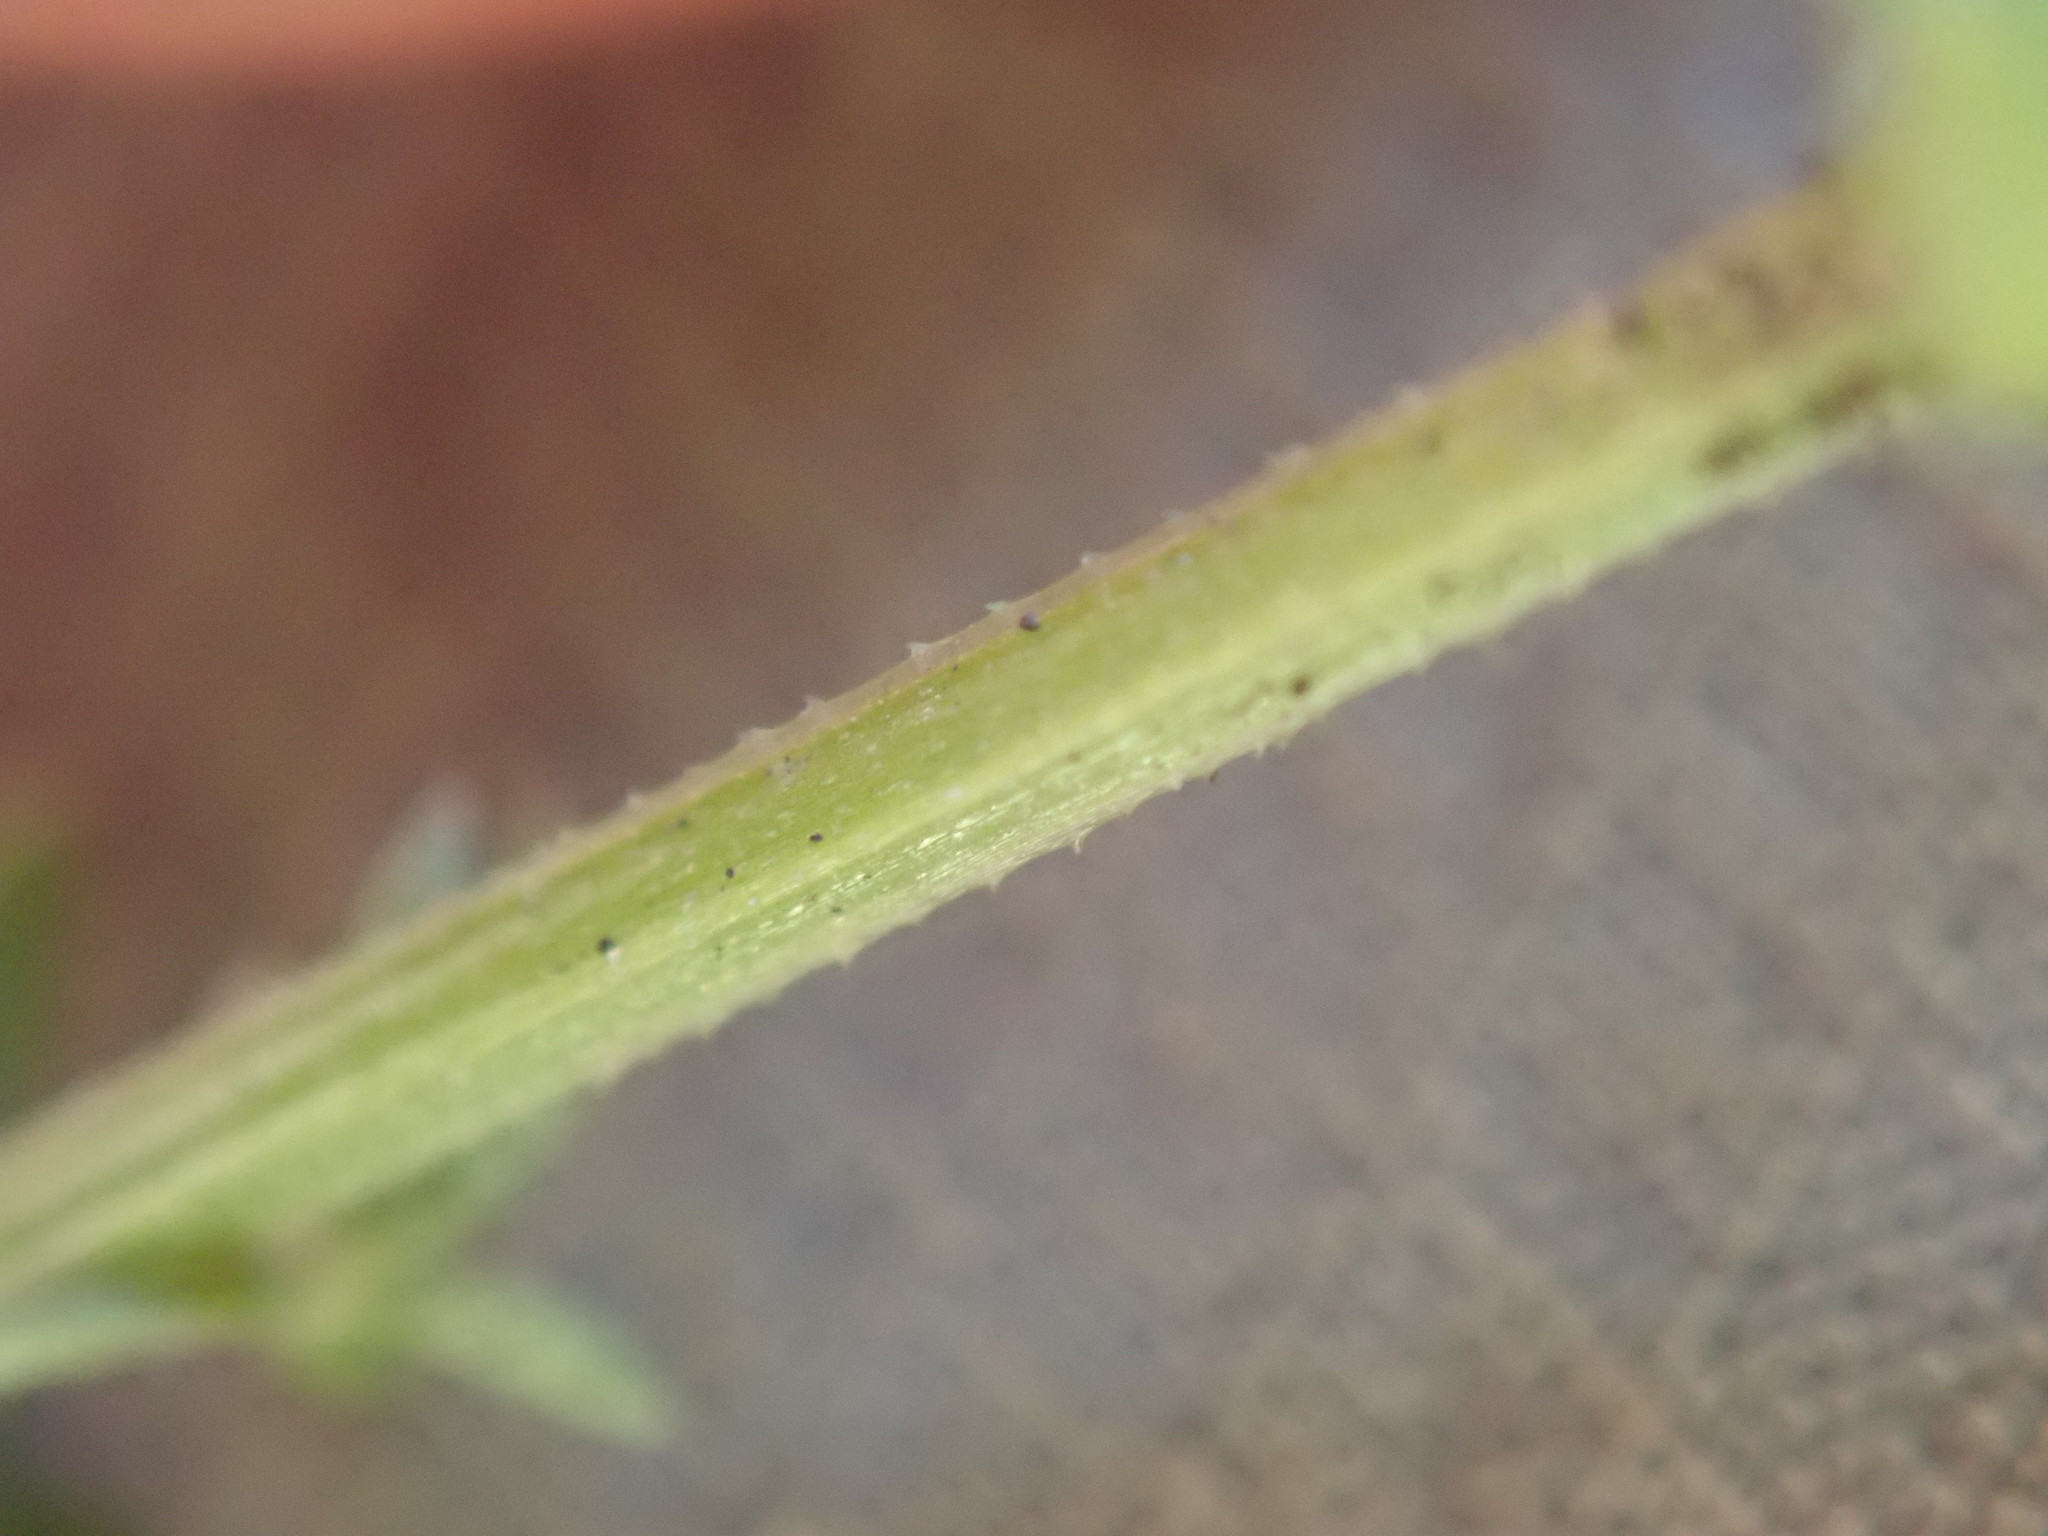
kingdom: Plantae
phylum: Tracheophyta
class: Magnoliopsida
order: Gentianales
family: Rubiaceae
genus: Galium
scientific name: Galium parisiense
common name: Wall bedstraw
